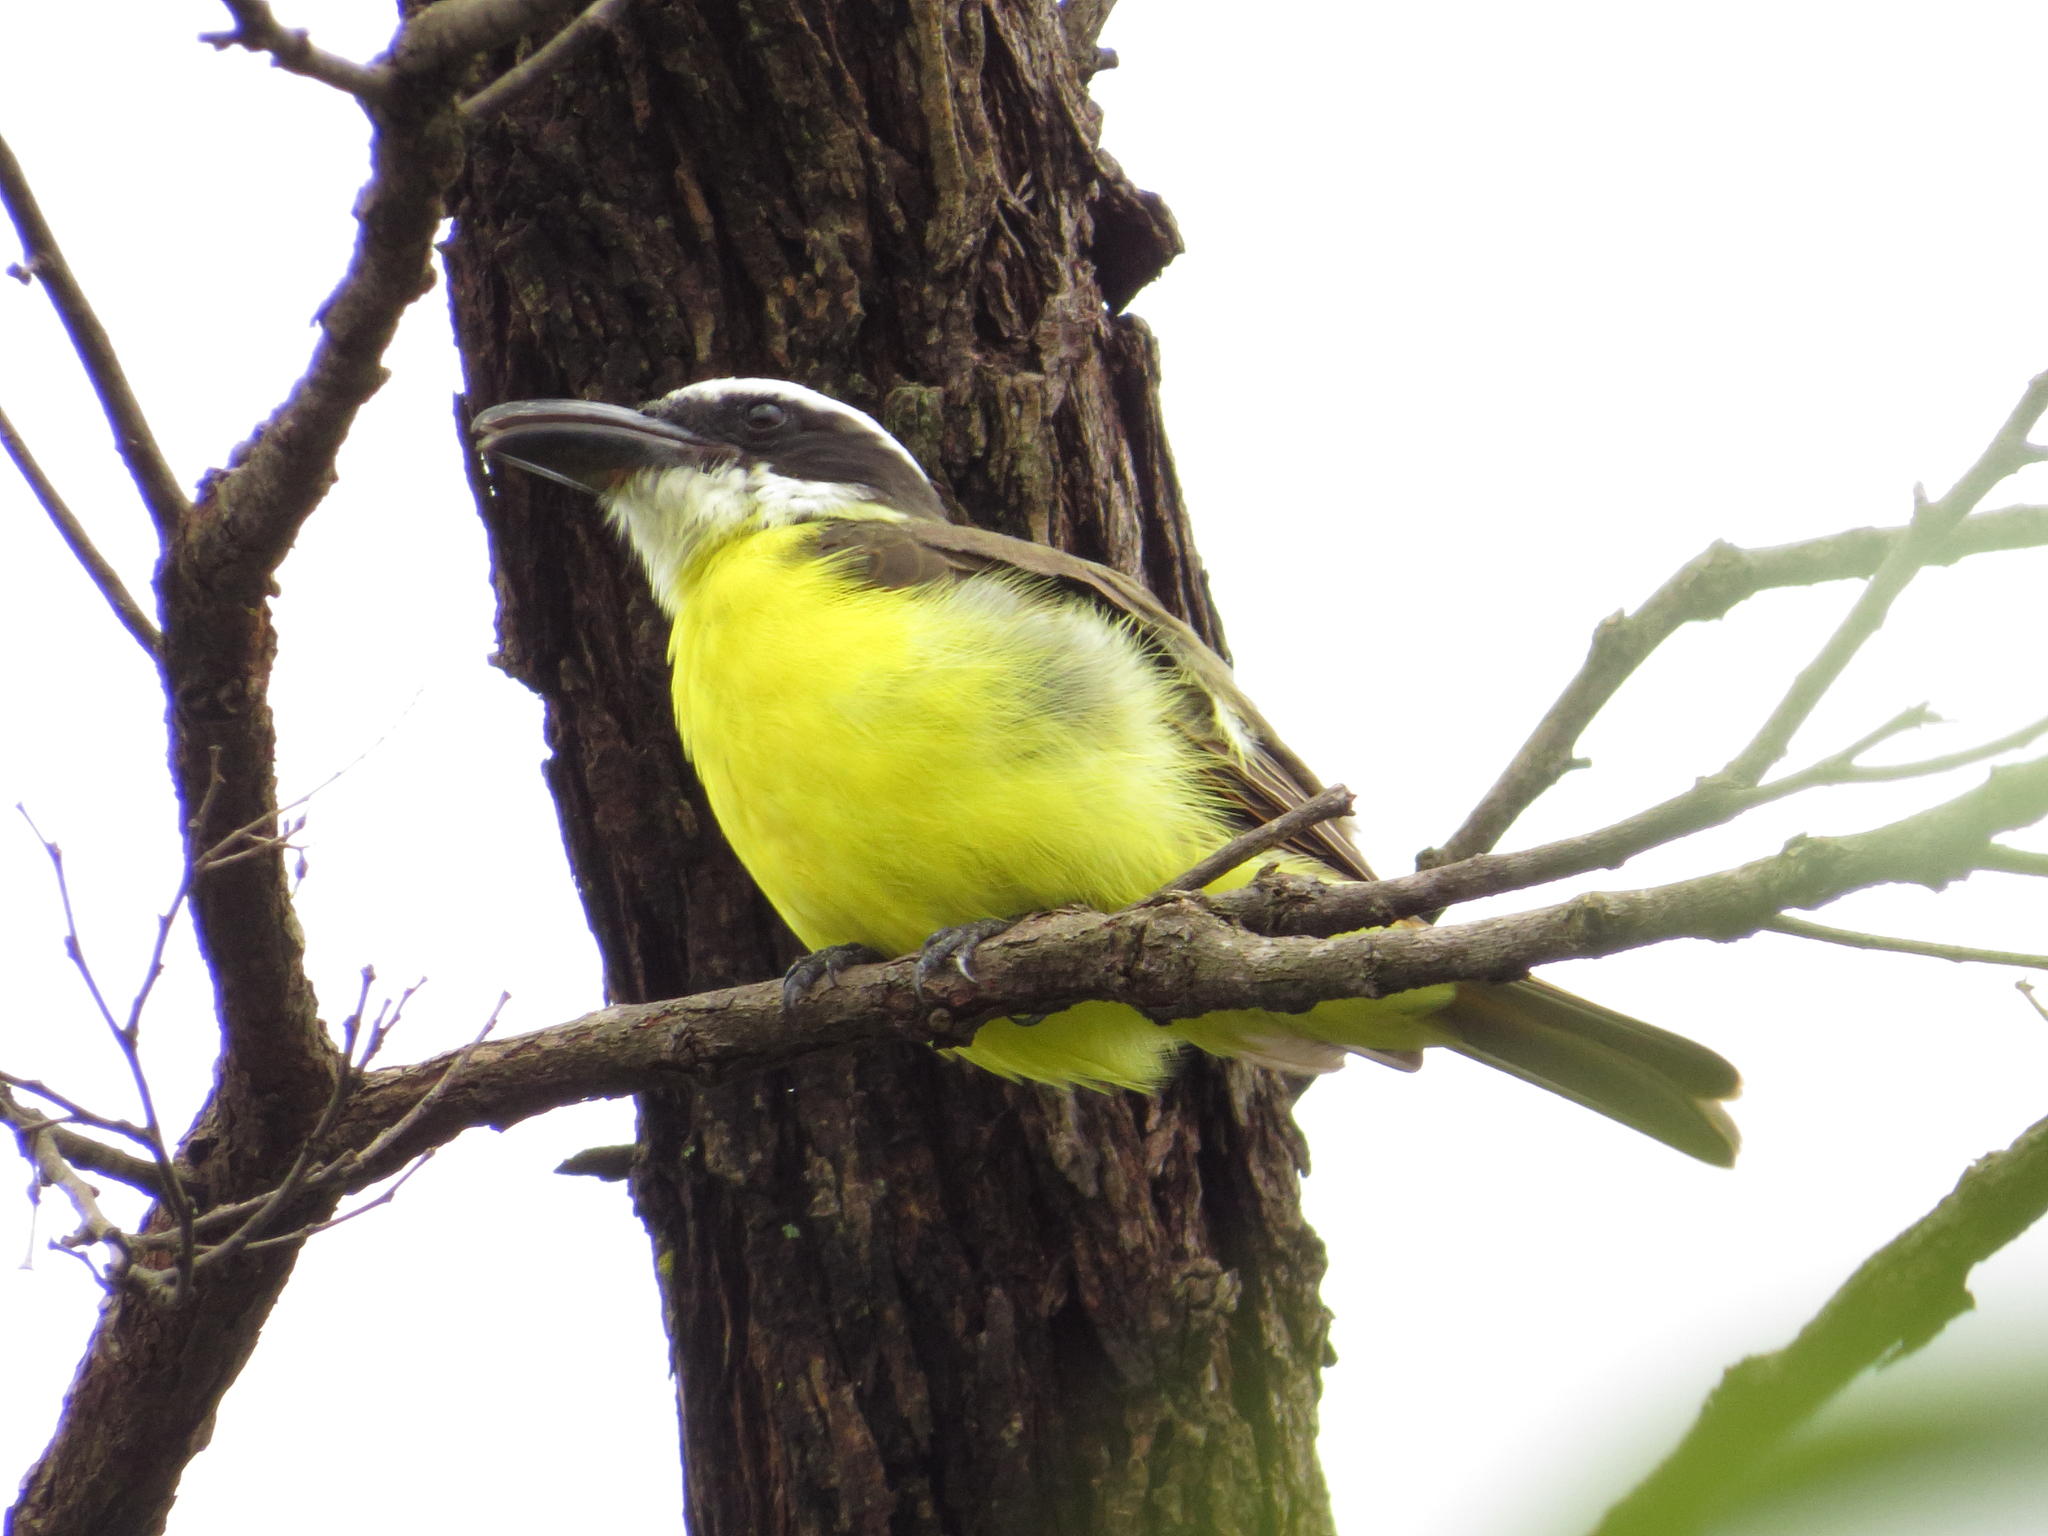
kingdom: Animalia
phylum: Chordata
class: Aves
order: Passeriformes
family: Tyrannidae
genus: Megarynchus
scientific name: Megarynchus pitangua
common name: Boat-billed flycatcher
